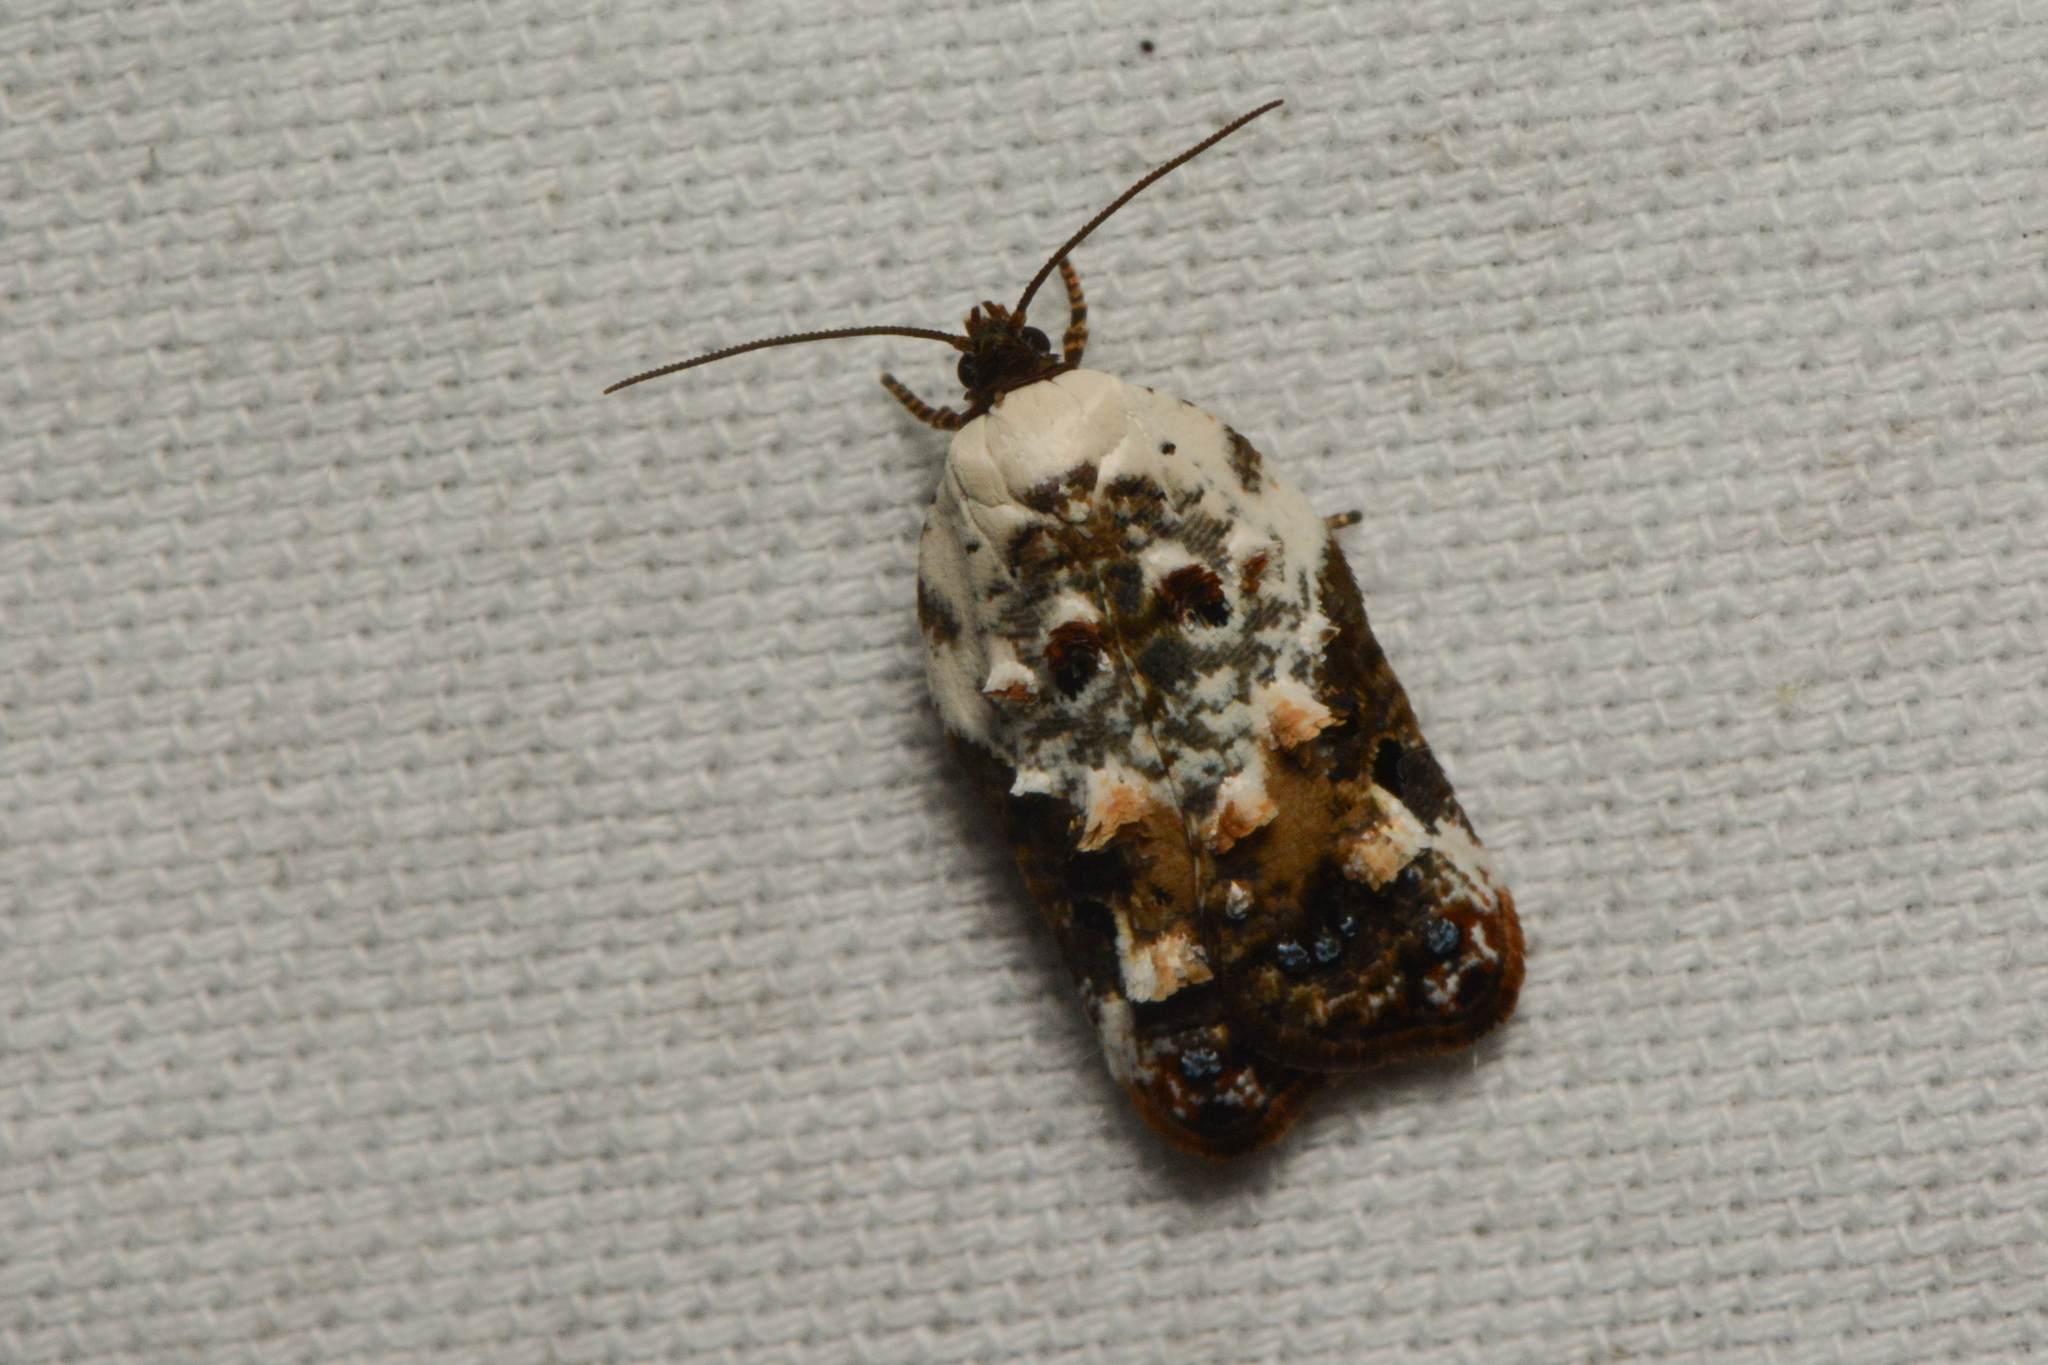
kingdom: Animalia
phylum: Arthropoda
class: Insecta
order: Lepidoptera
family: Tortricidae
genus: Acleris
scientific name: Acleris nivisellana
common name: Snowy-shouldered acleris moth
